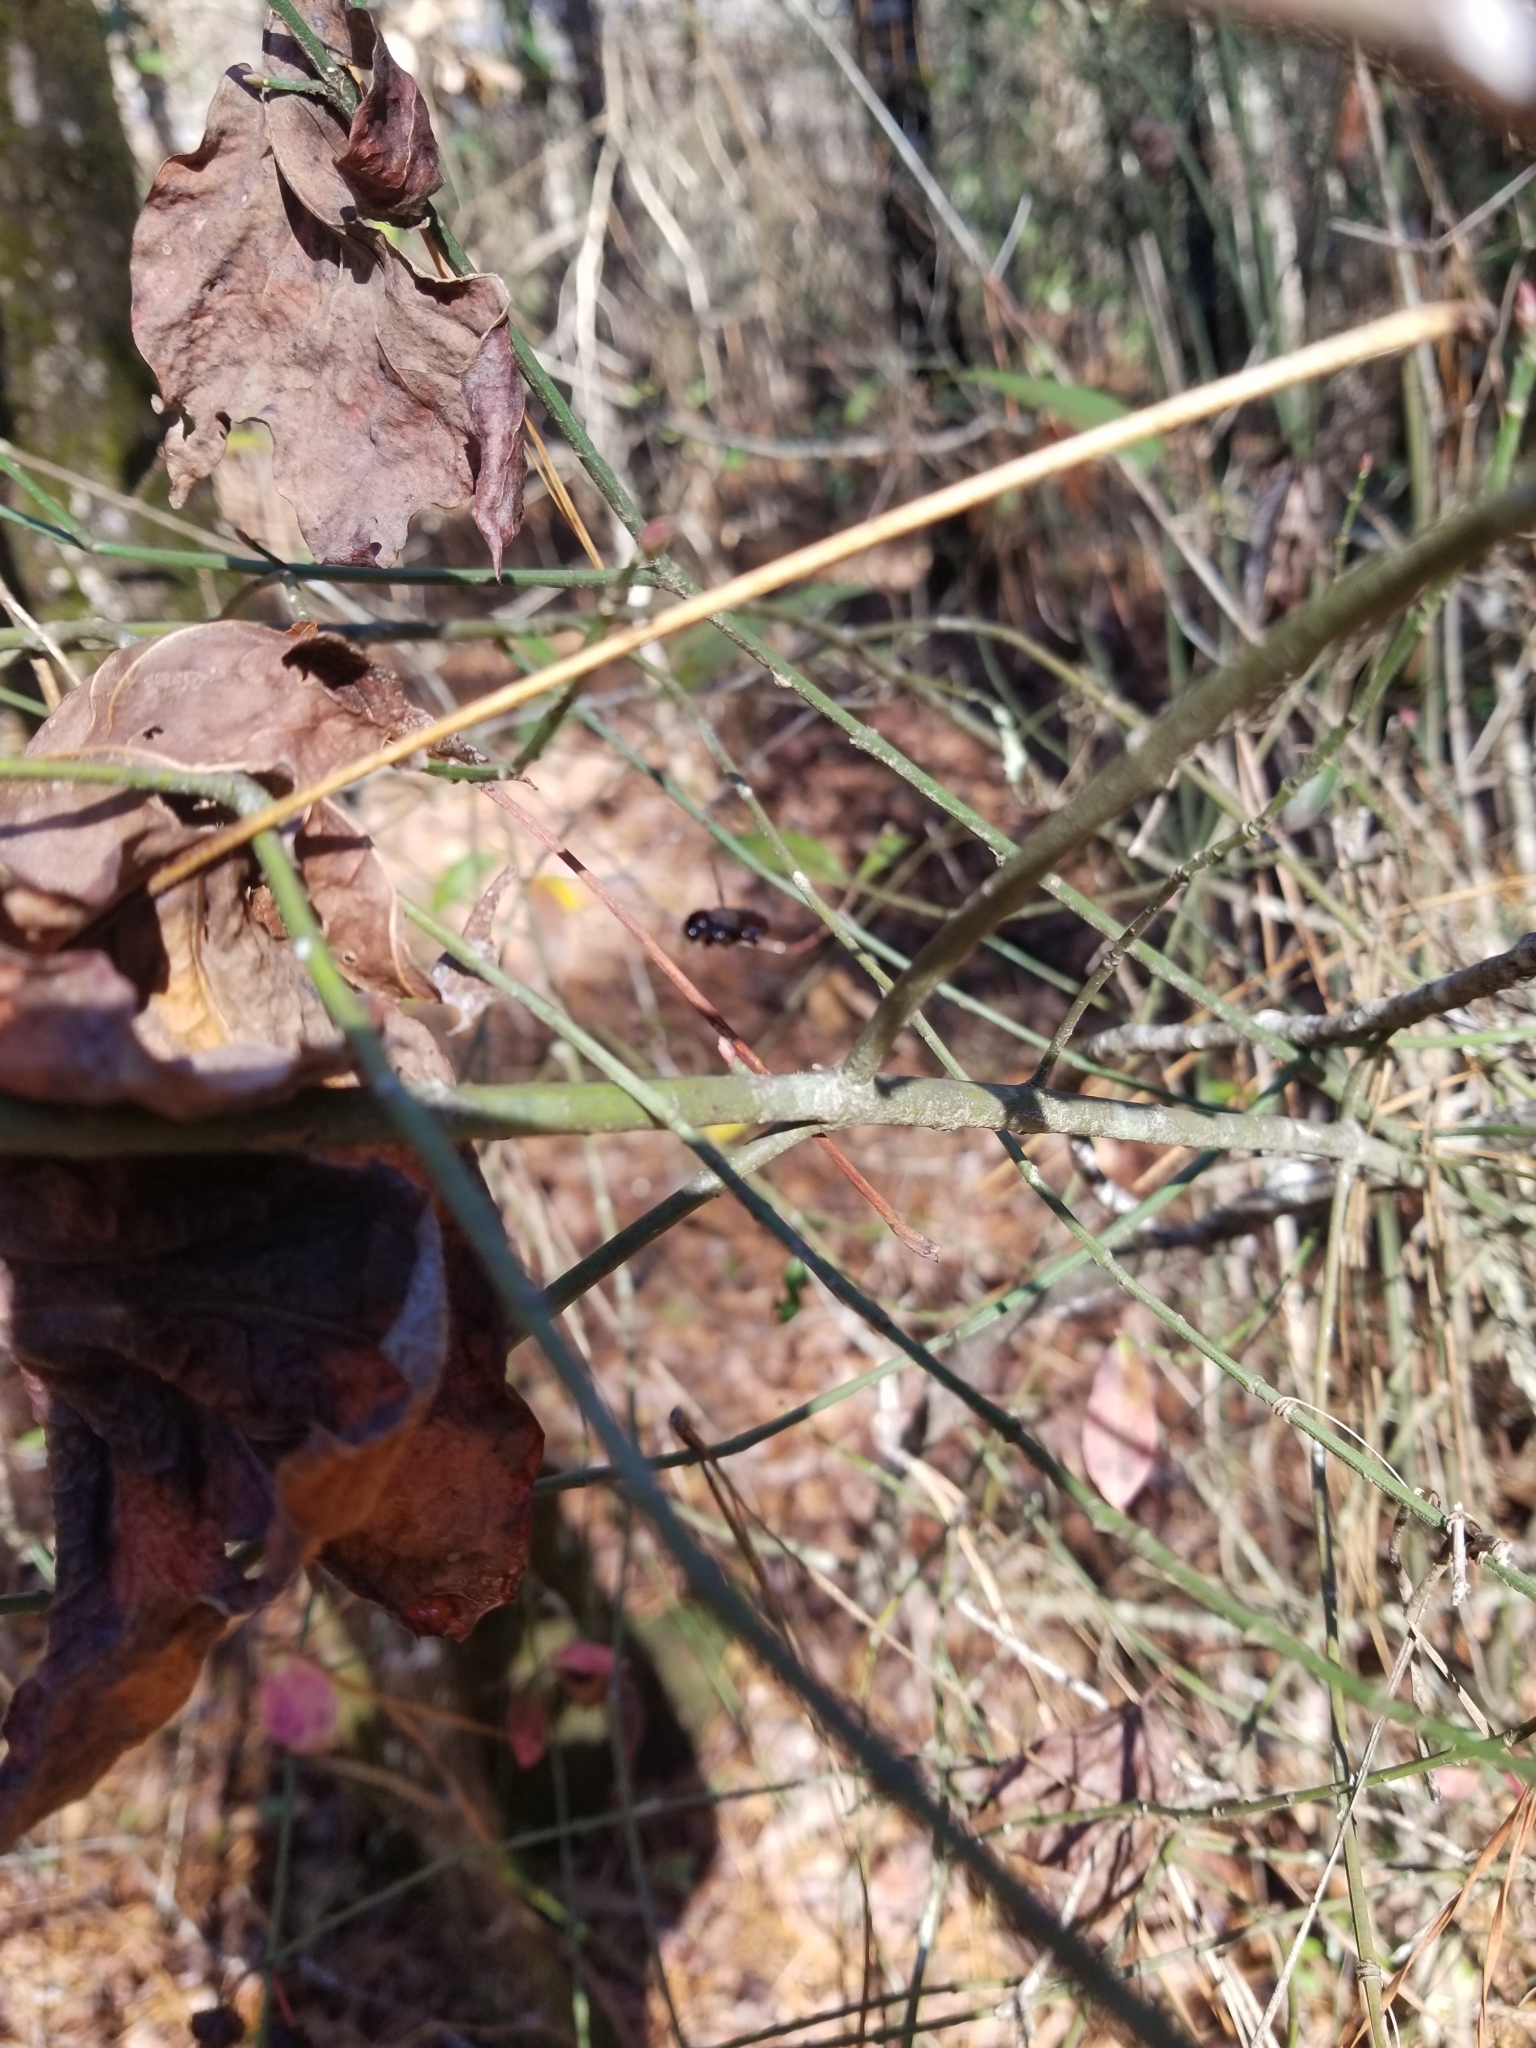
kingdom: Plantae
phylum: Tracheophyta
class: Magnoliopsida
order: Celastrales
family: Celastraceae
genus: Euonymus
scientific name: Euonymus americanus
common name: Bursting-heart
